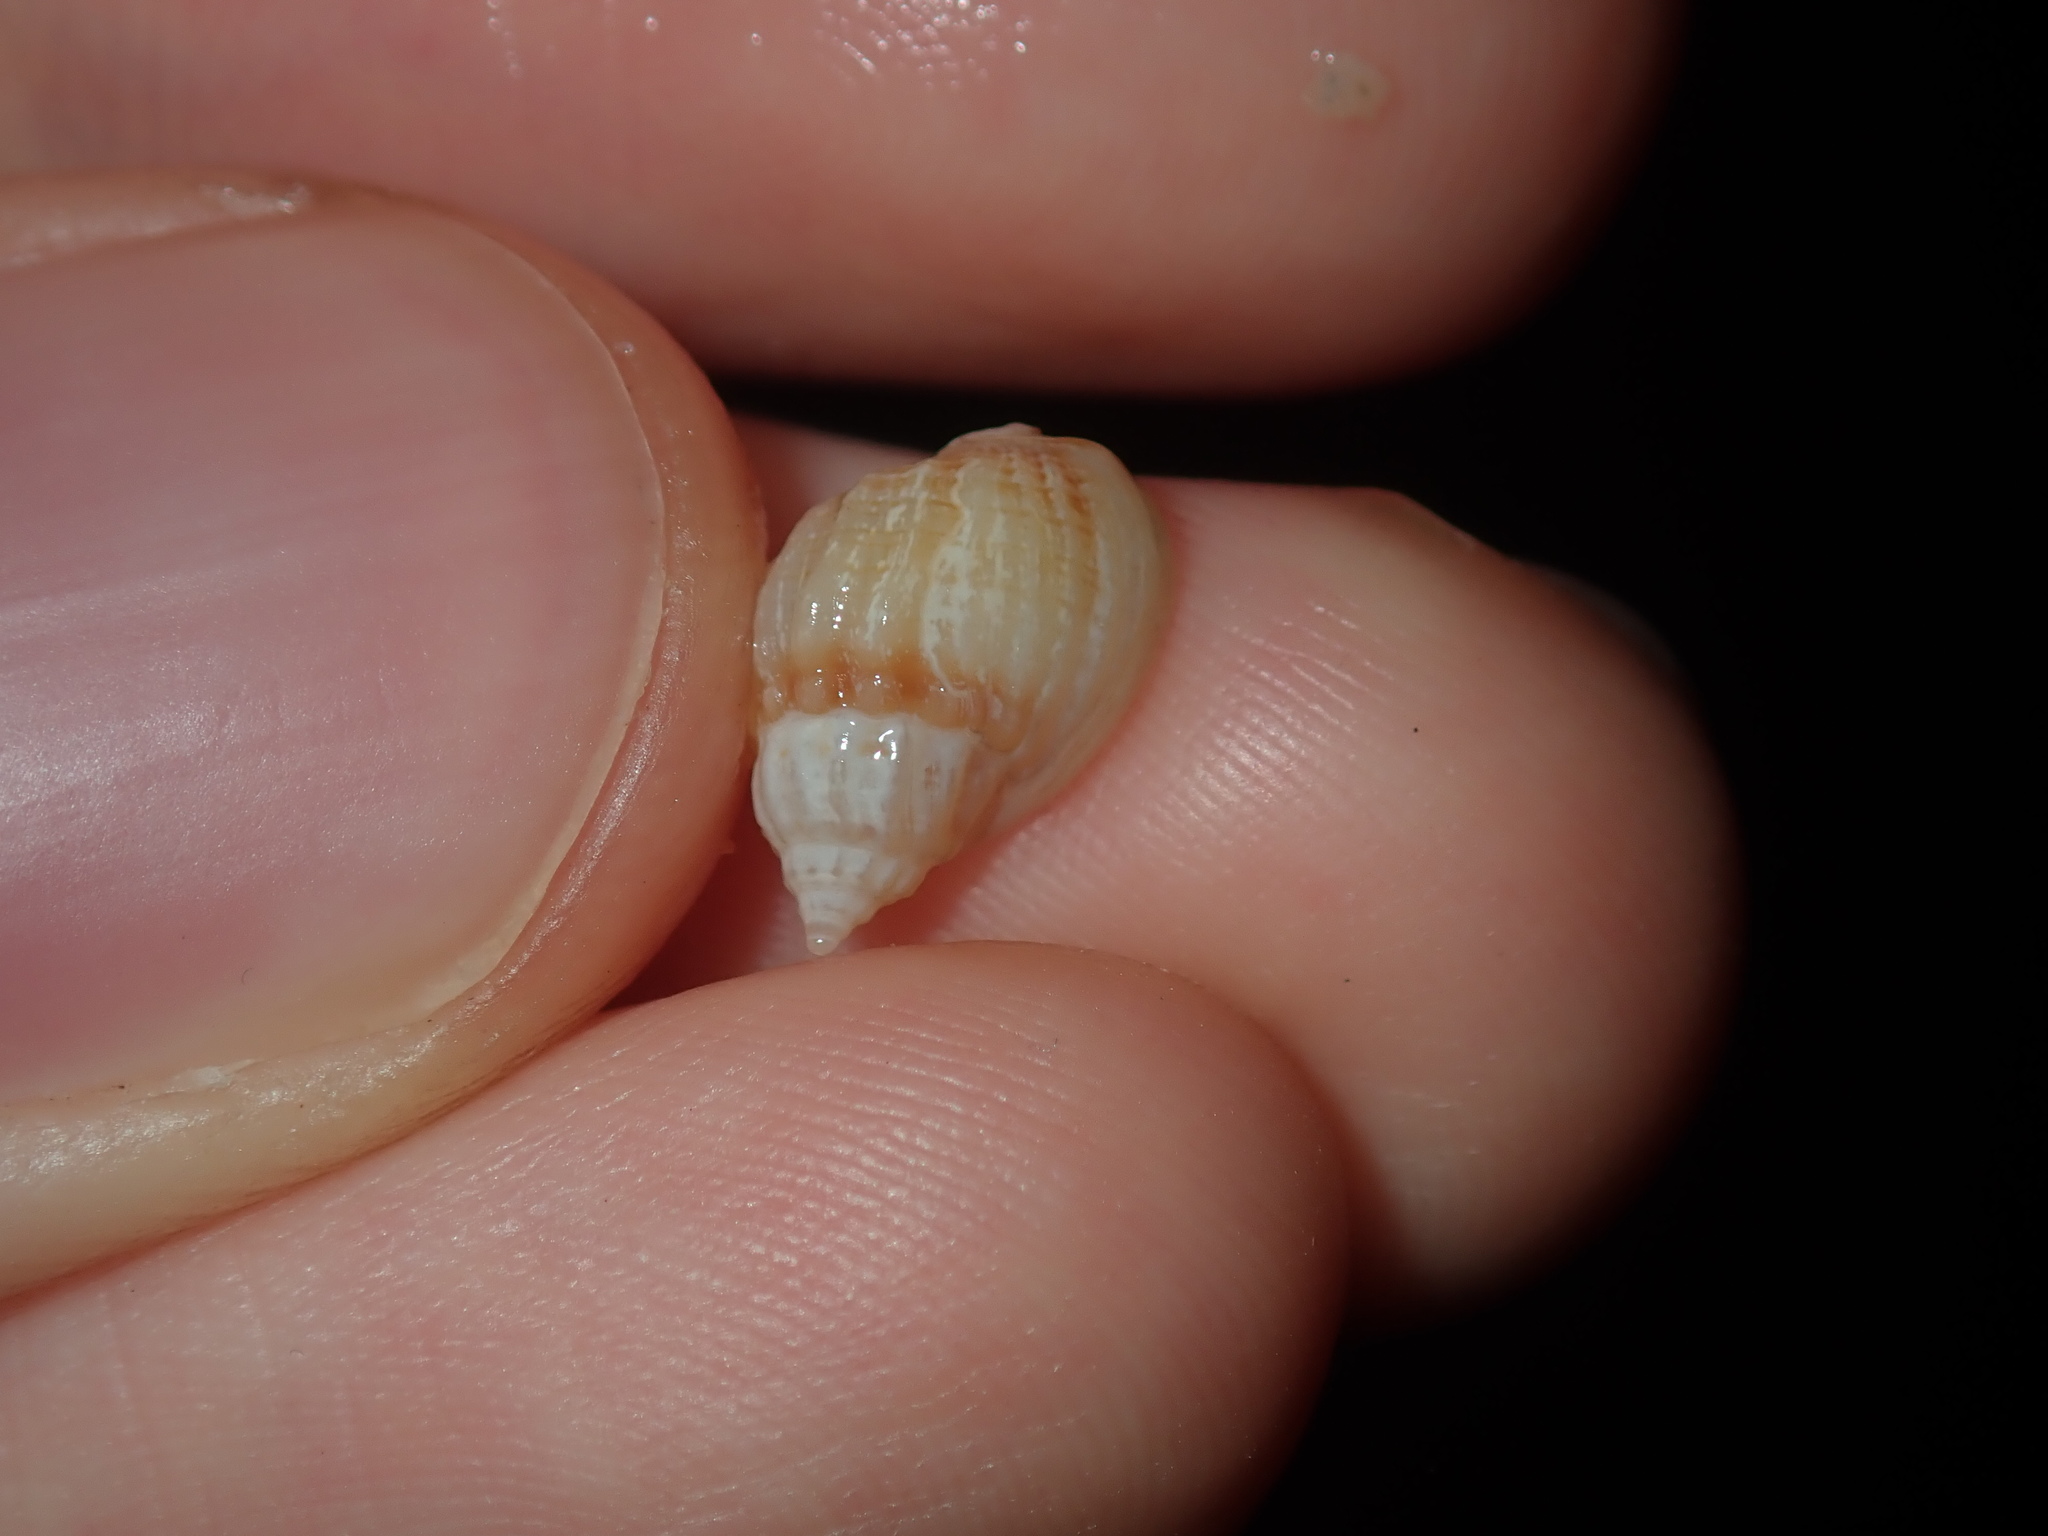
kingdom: Animalia
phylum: Mollusca
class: Gastropoda
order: Neogastropoda
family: Nassariidae
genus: Nassarius
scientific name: Nassarius jonasii
